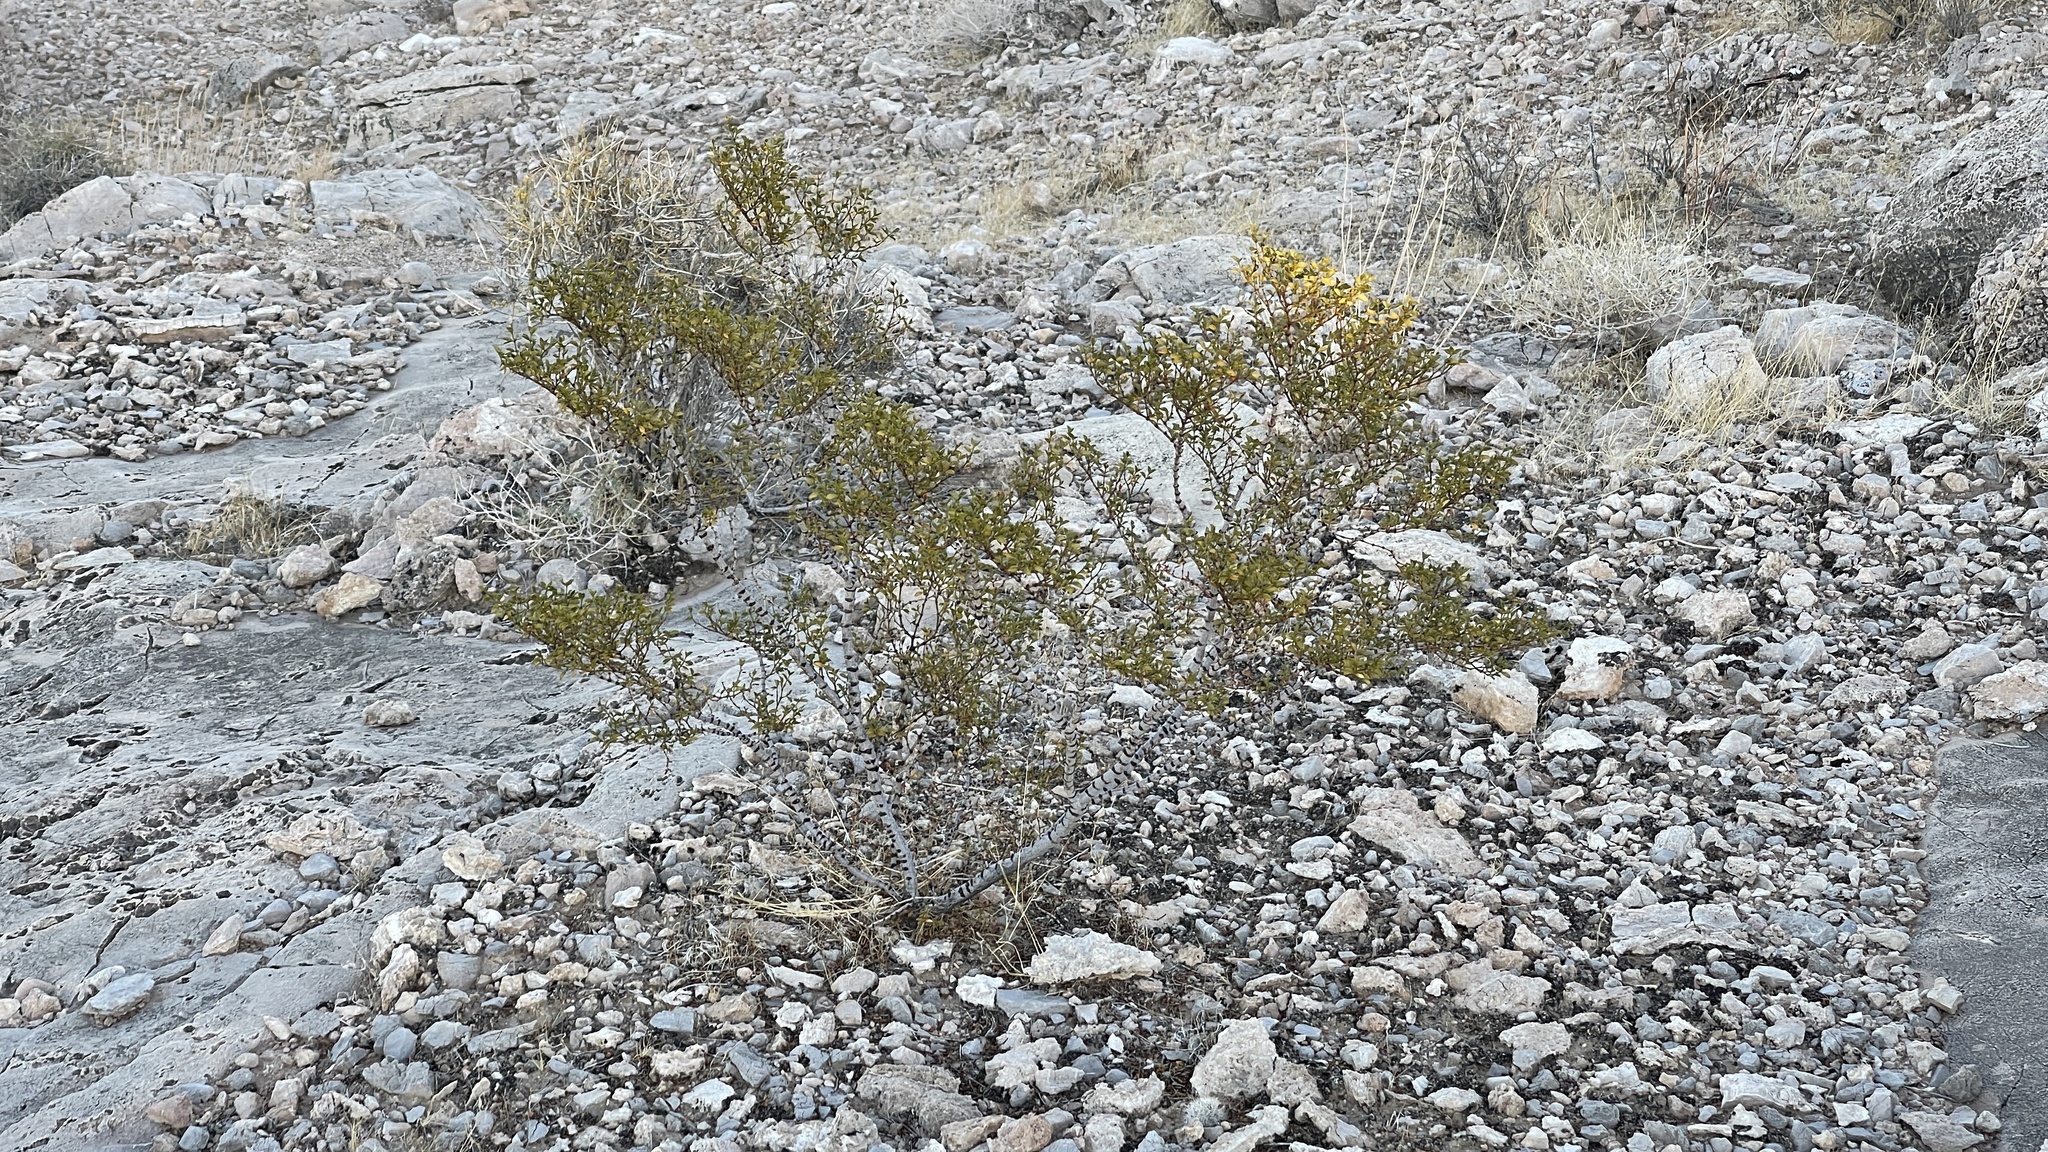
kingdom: Plantae
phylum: Tracheophyta
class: Magnoliopsida
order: Zygophyllales
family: Zygophyllaceae
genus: Larrea
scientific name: Larrea tridentata
